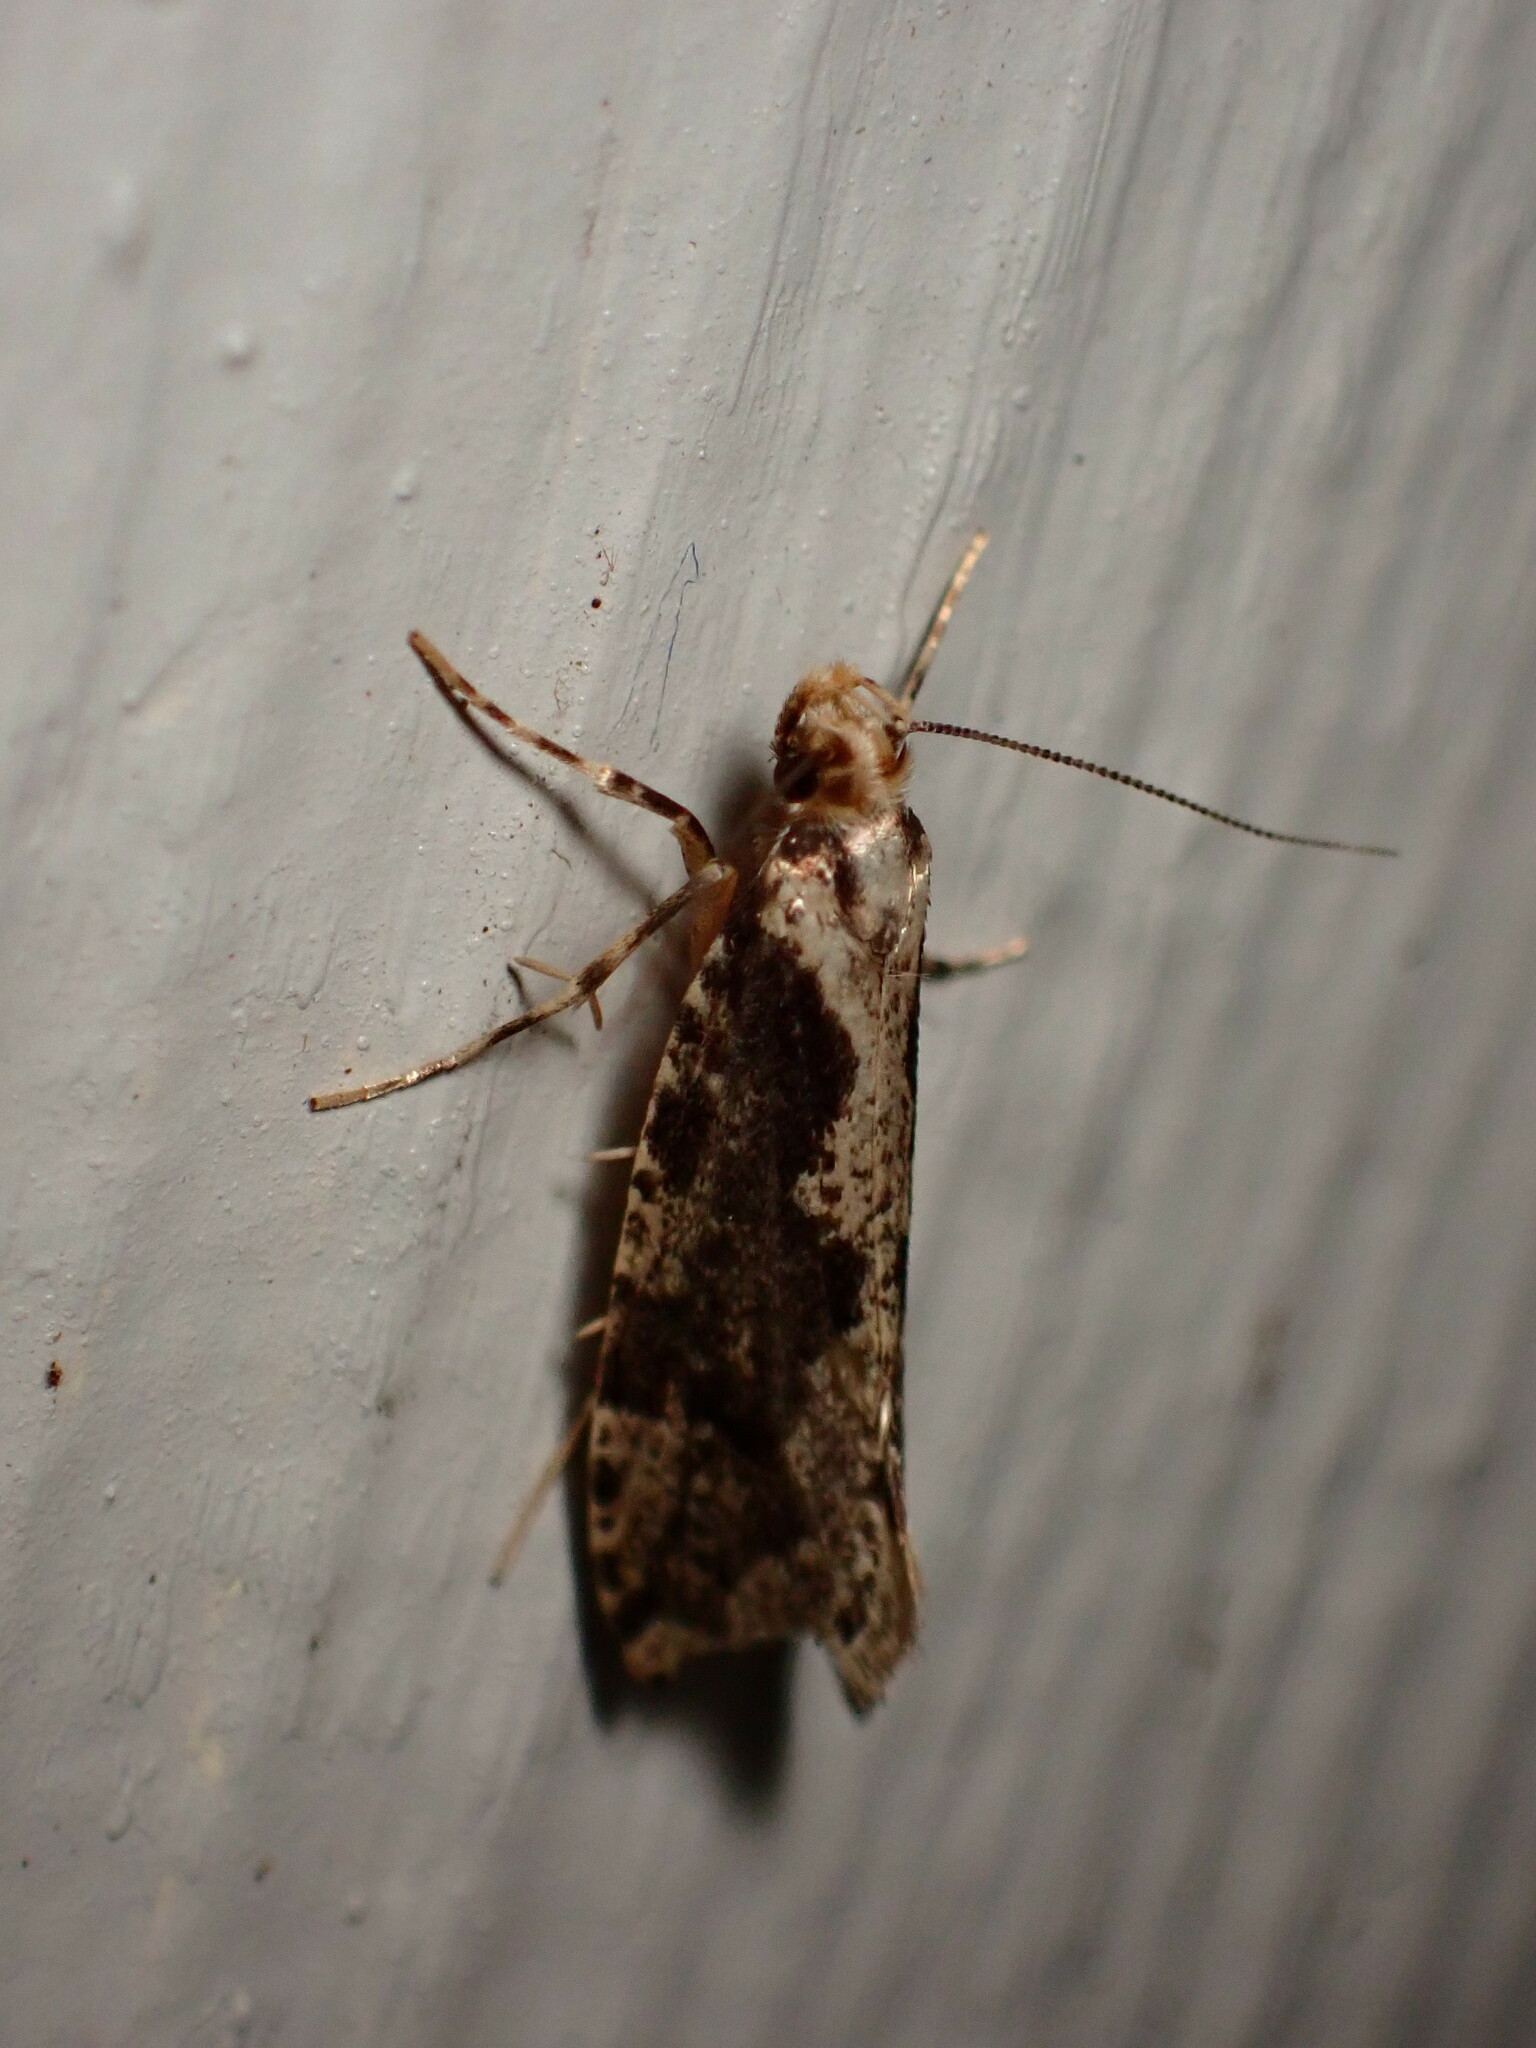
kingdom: Animalia
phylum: Arthropoda
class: Insecta
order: Lepidoptera
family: Tineidae
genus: Monopis
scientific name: Monopis crocicapitella
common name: Moth
